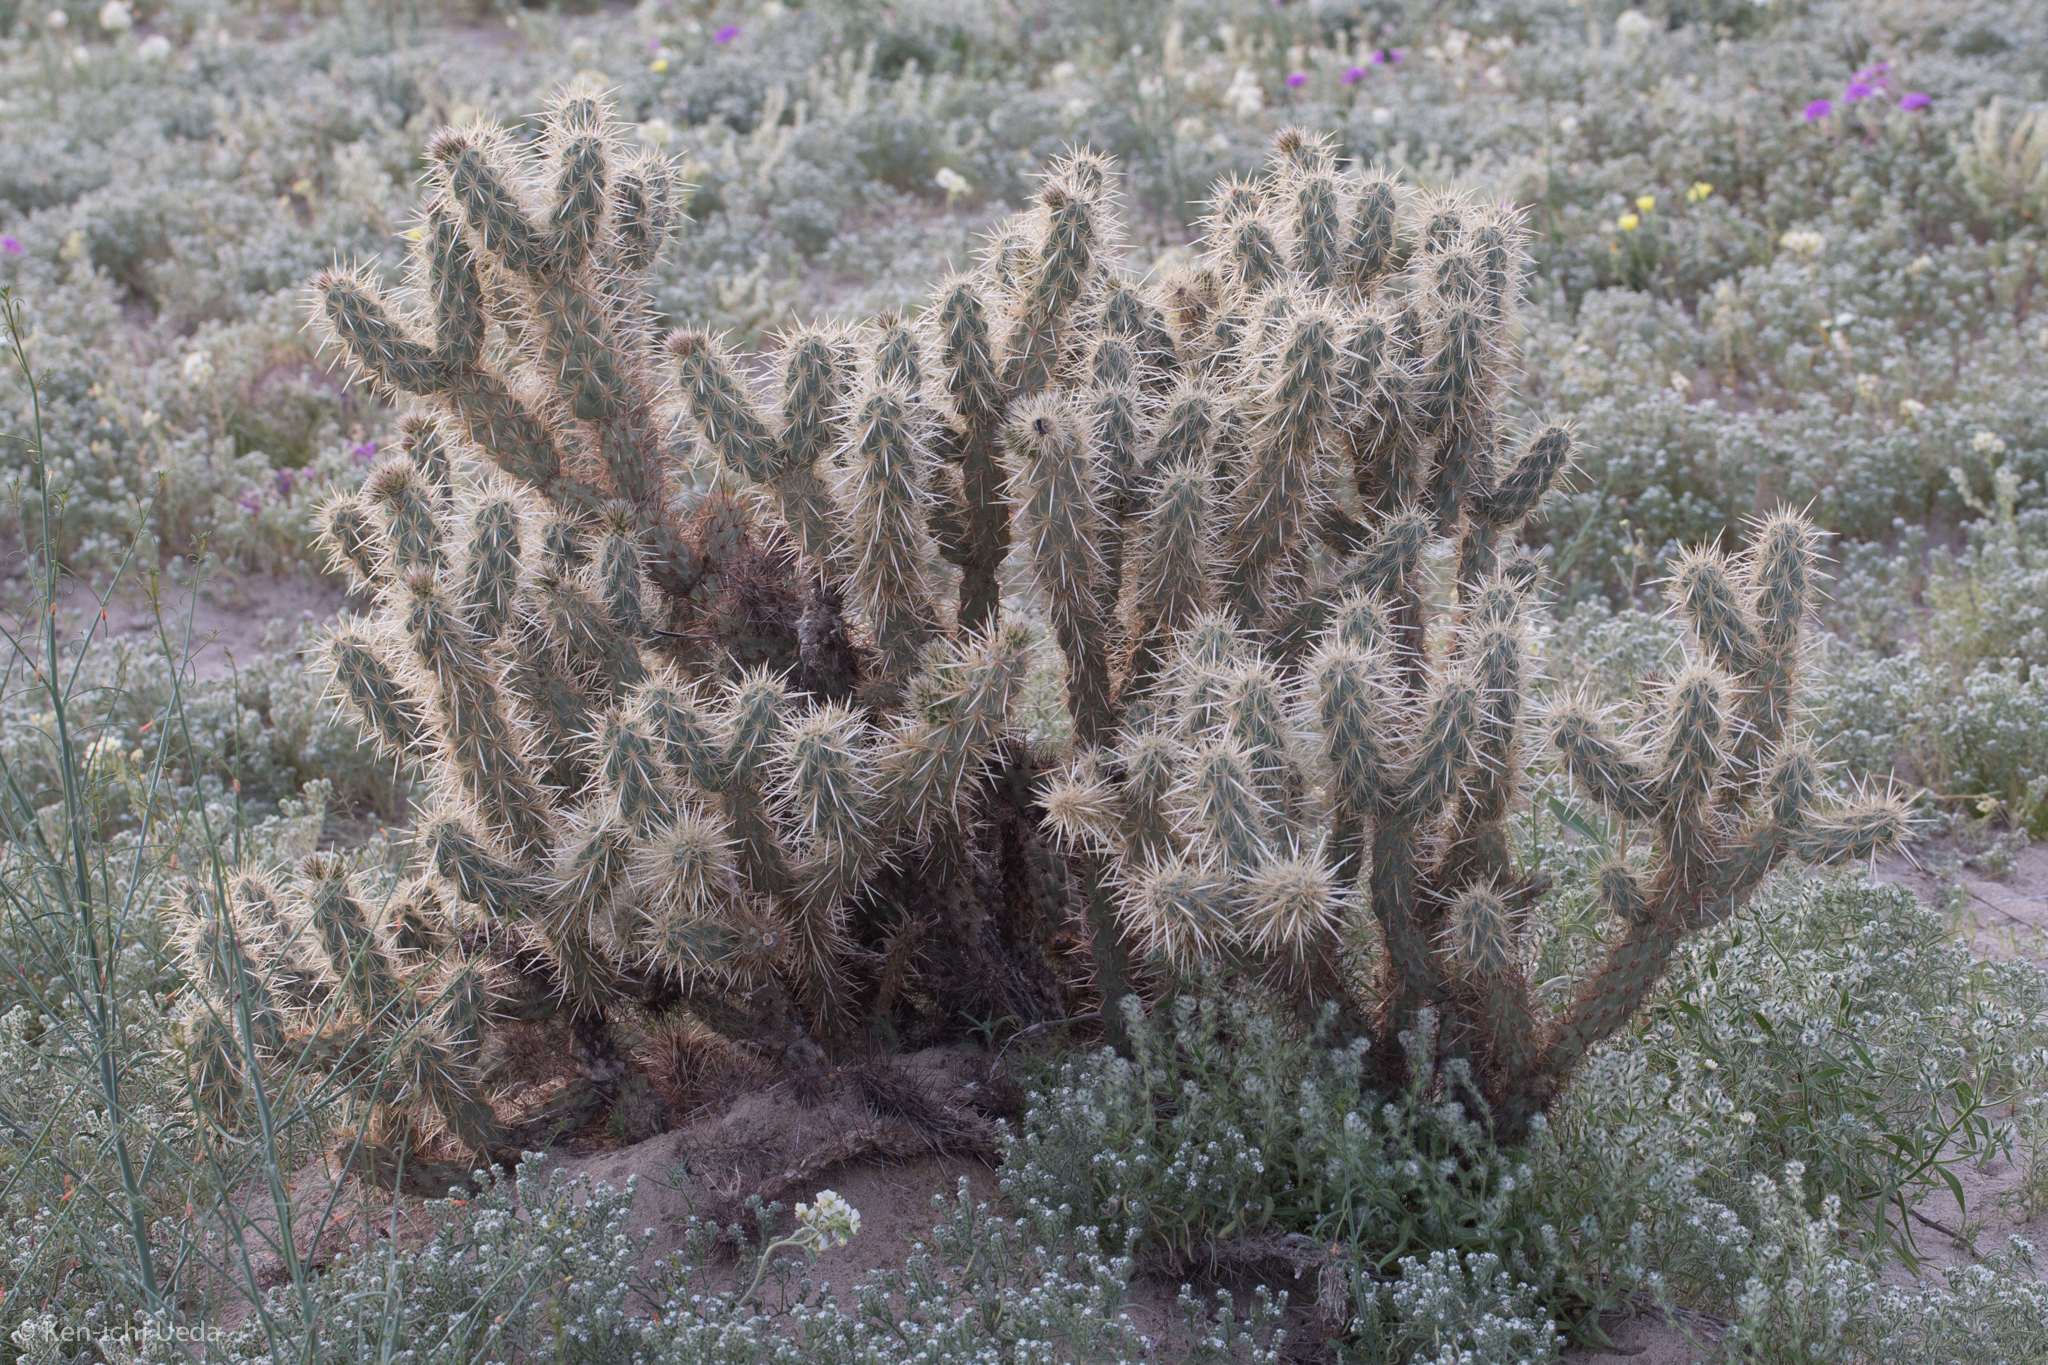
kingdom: Plantae
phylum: Tracheophyta
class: Magnoliopsida
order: Caryophyllales
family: Cactaceae
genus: Cylindropuntia
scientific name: Cylindropuntia ganderi
